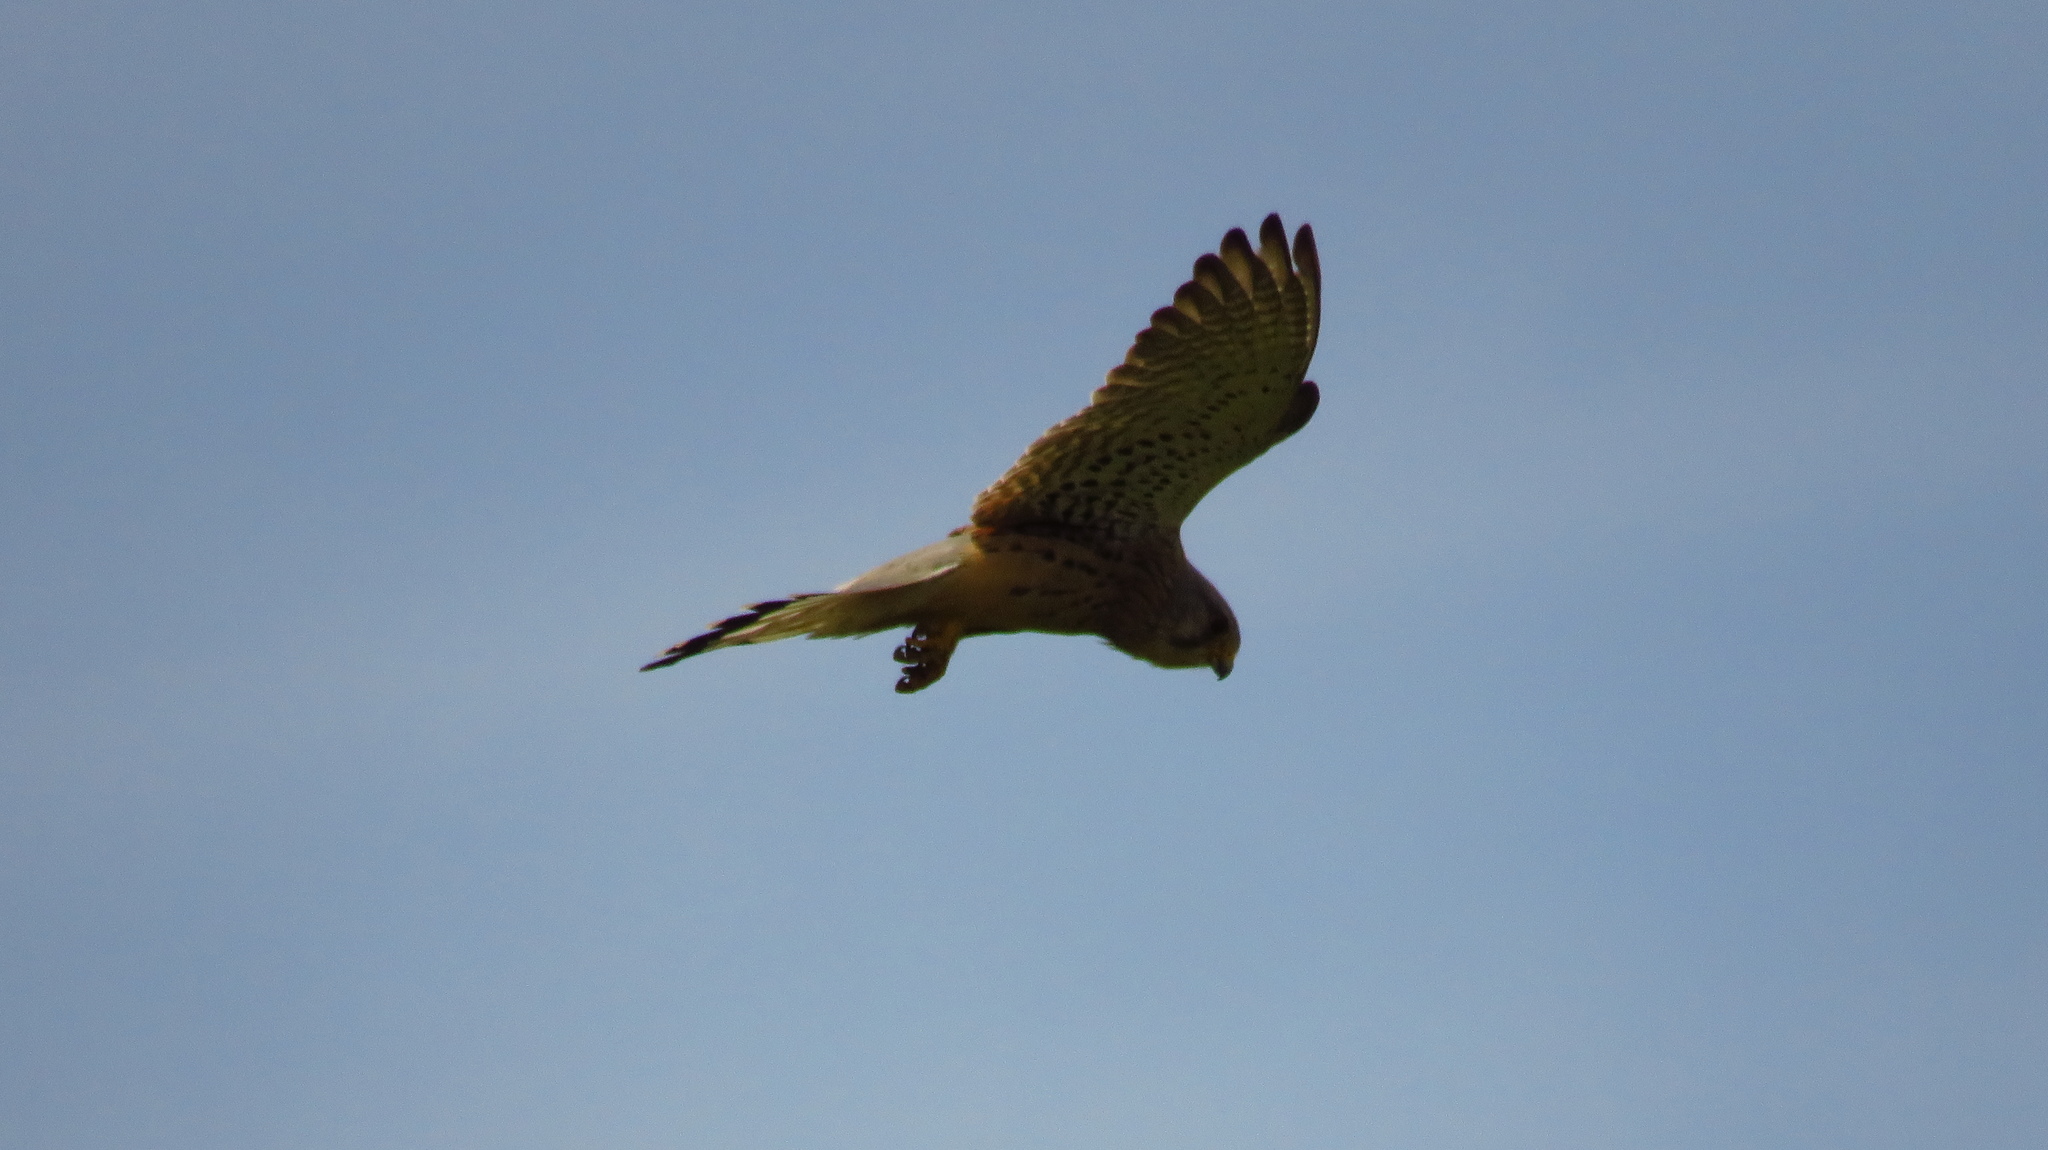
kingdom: Animalia
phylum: Chordata
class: Aves
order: Falconiformes
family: Falconidae
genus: Falco
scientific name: Falco tinnunculus
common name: Common kestrel
